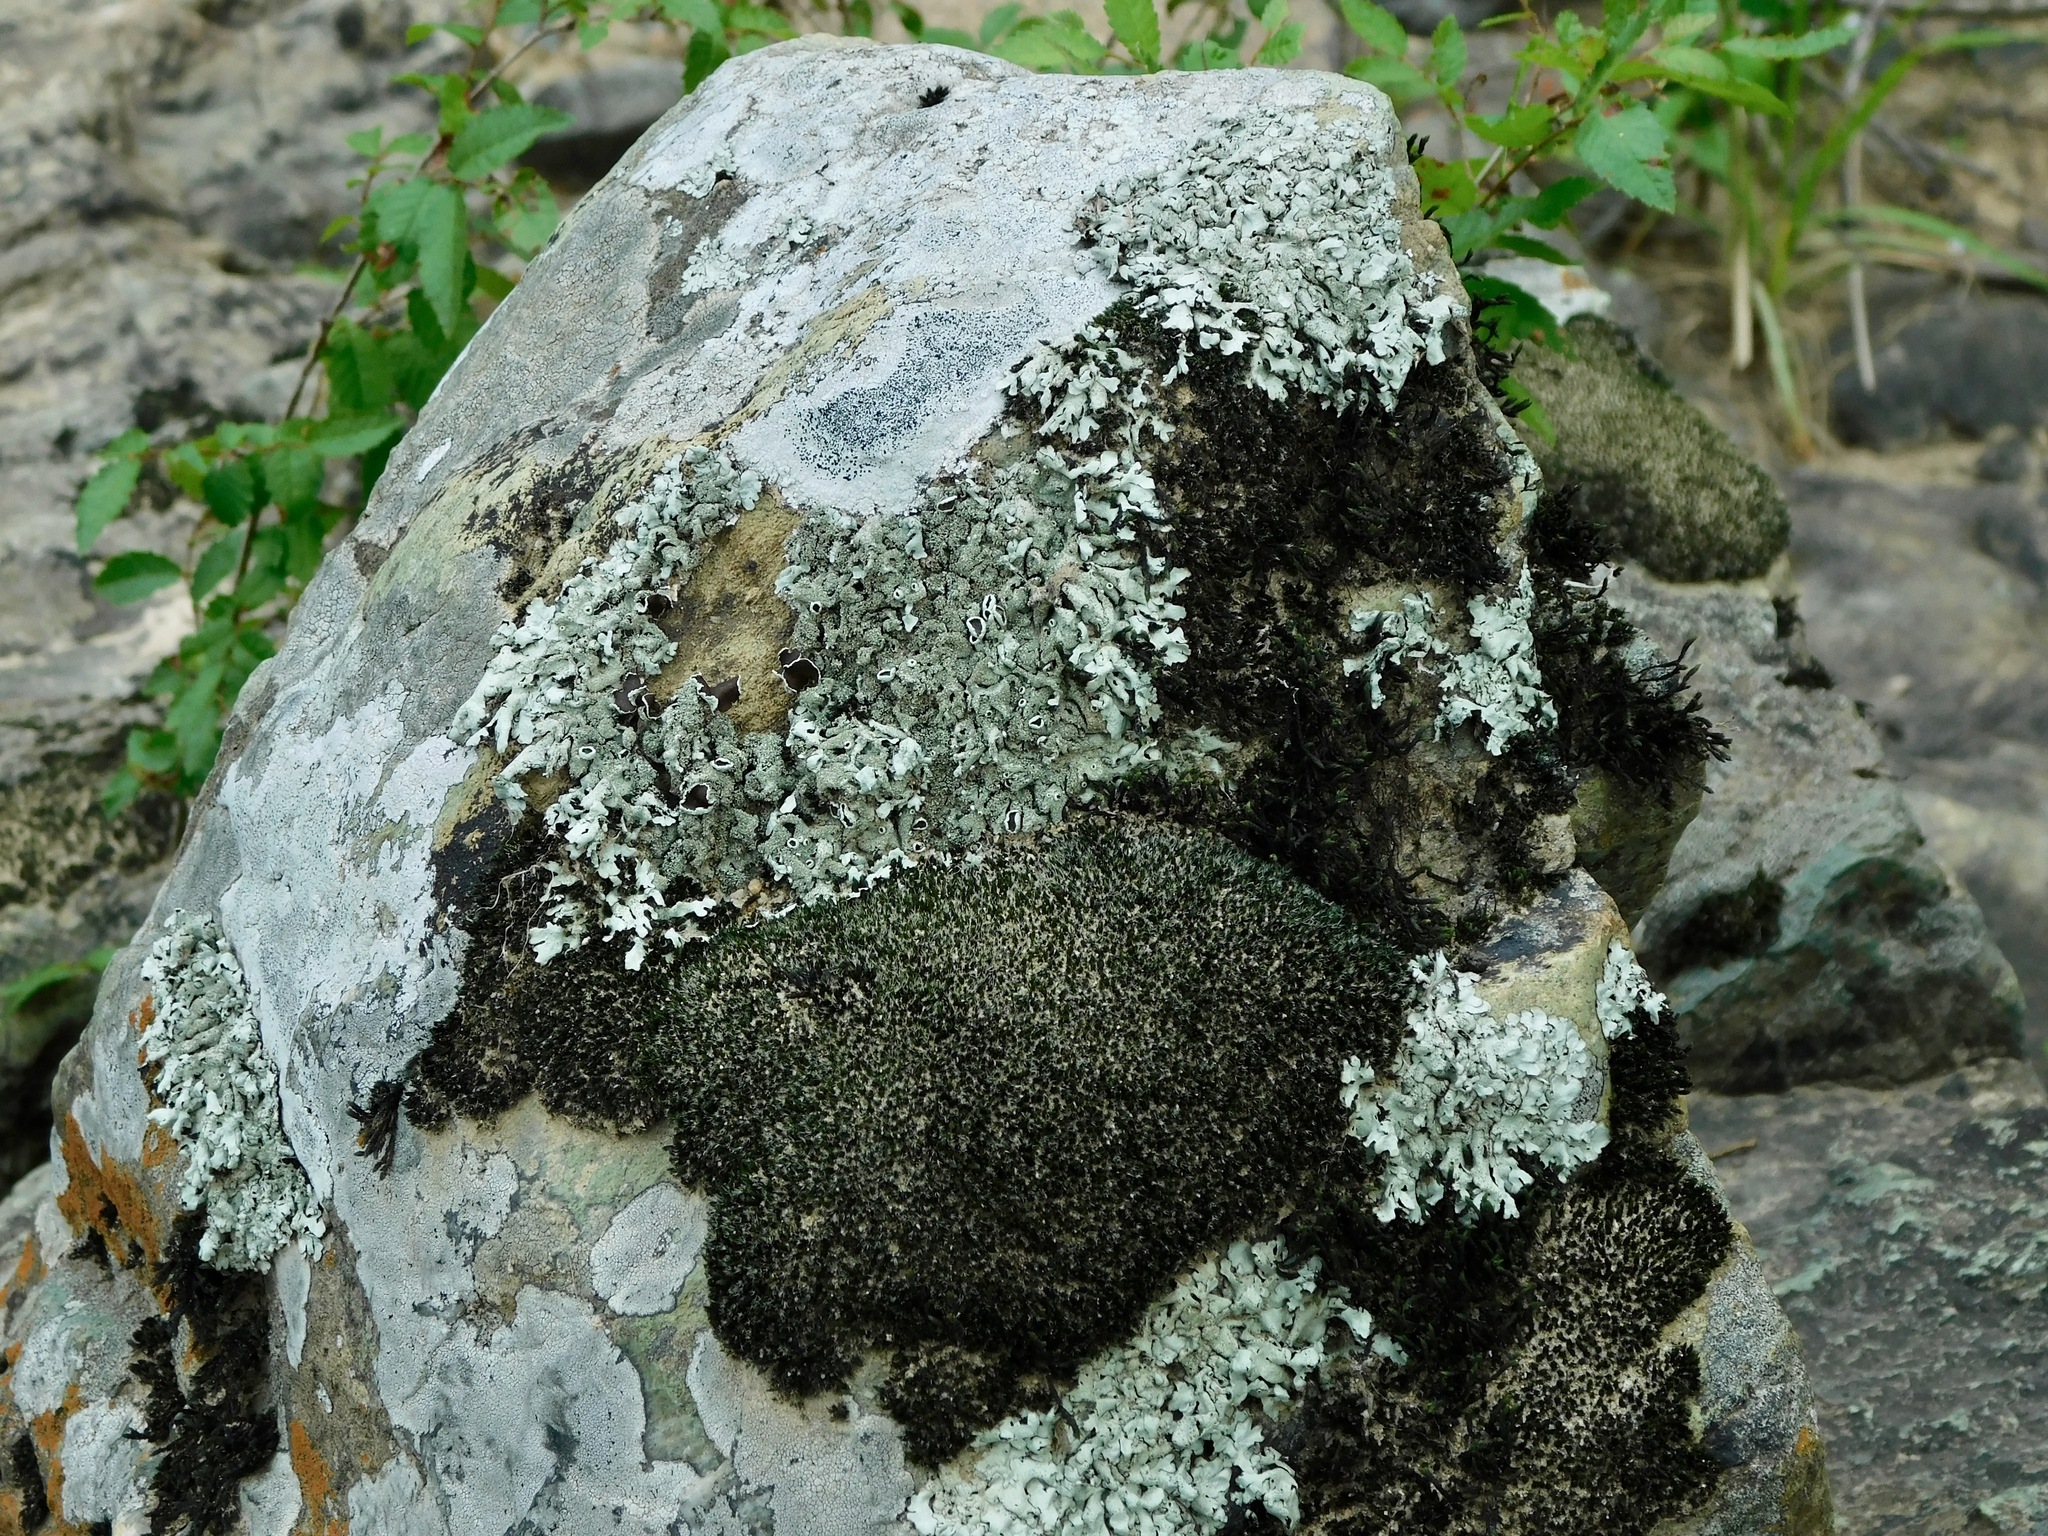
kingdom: Fungi
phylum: Ascomycota
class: Lecanoromycetes
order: Lecanorales
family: Parmeliaceae
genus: Xanthoparmelia
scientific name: Xanthoparmelia conspersa
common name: Peppered rock shield
